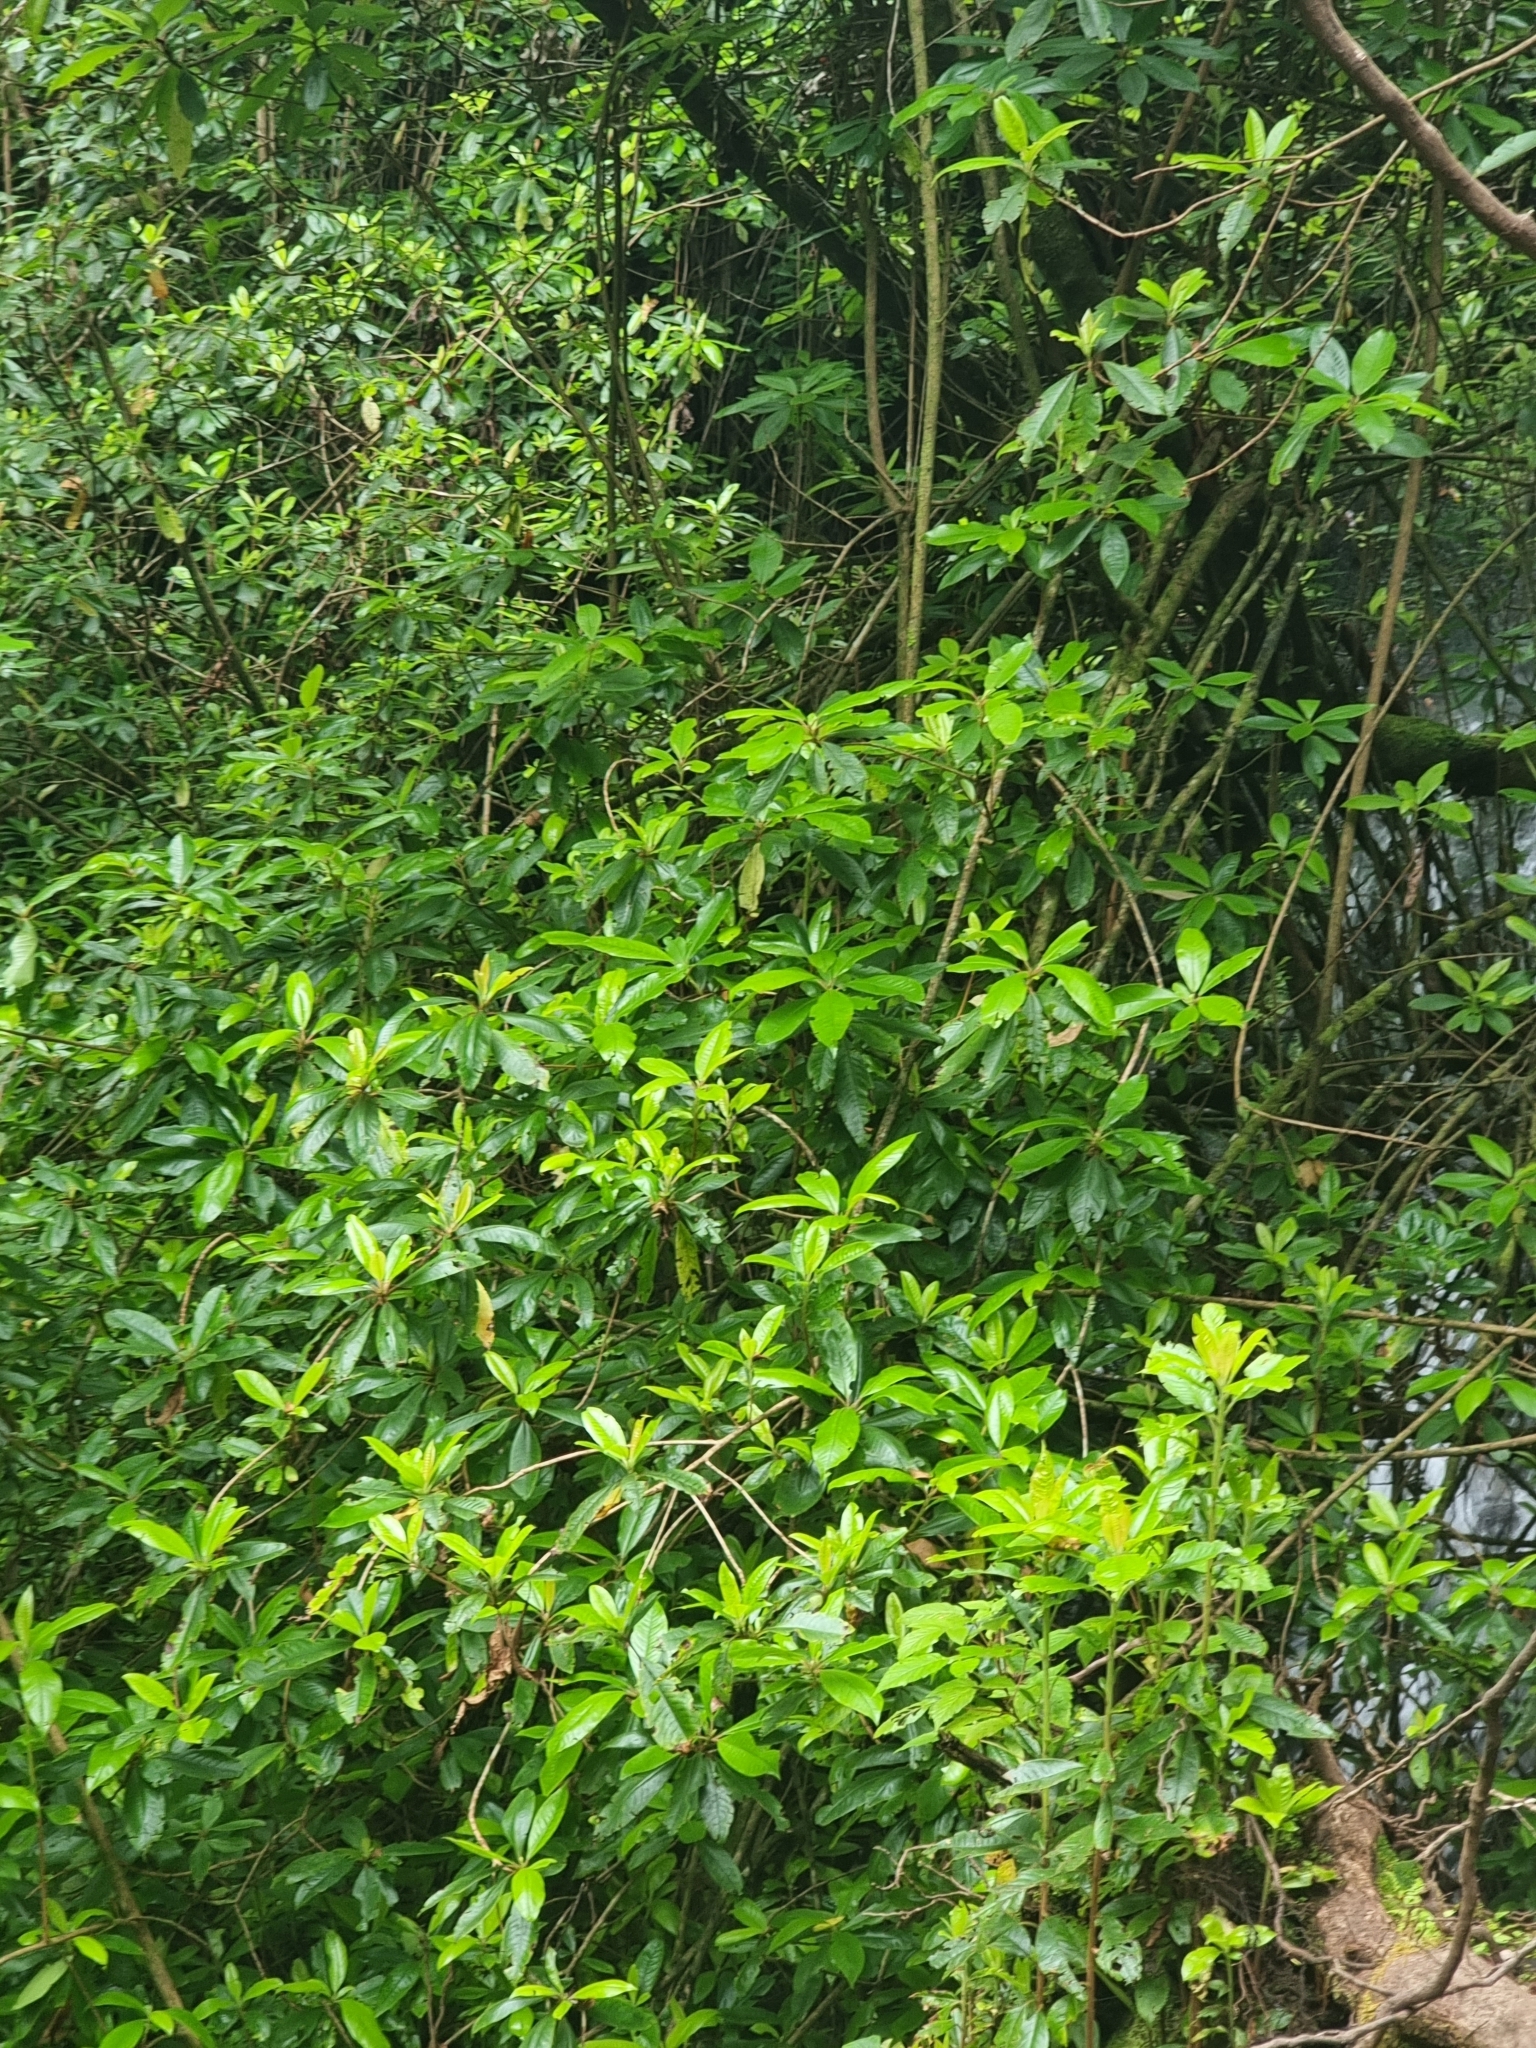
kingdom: Plantae
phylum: Tracheophyta
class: Magnoliopsida
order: Ericales
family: Clethraceae
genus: Clethra
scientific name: Clethra arborea
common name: Lily-of-the-valley-tree
